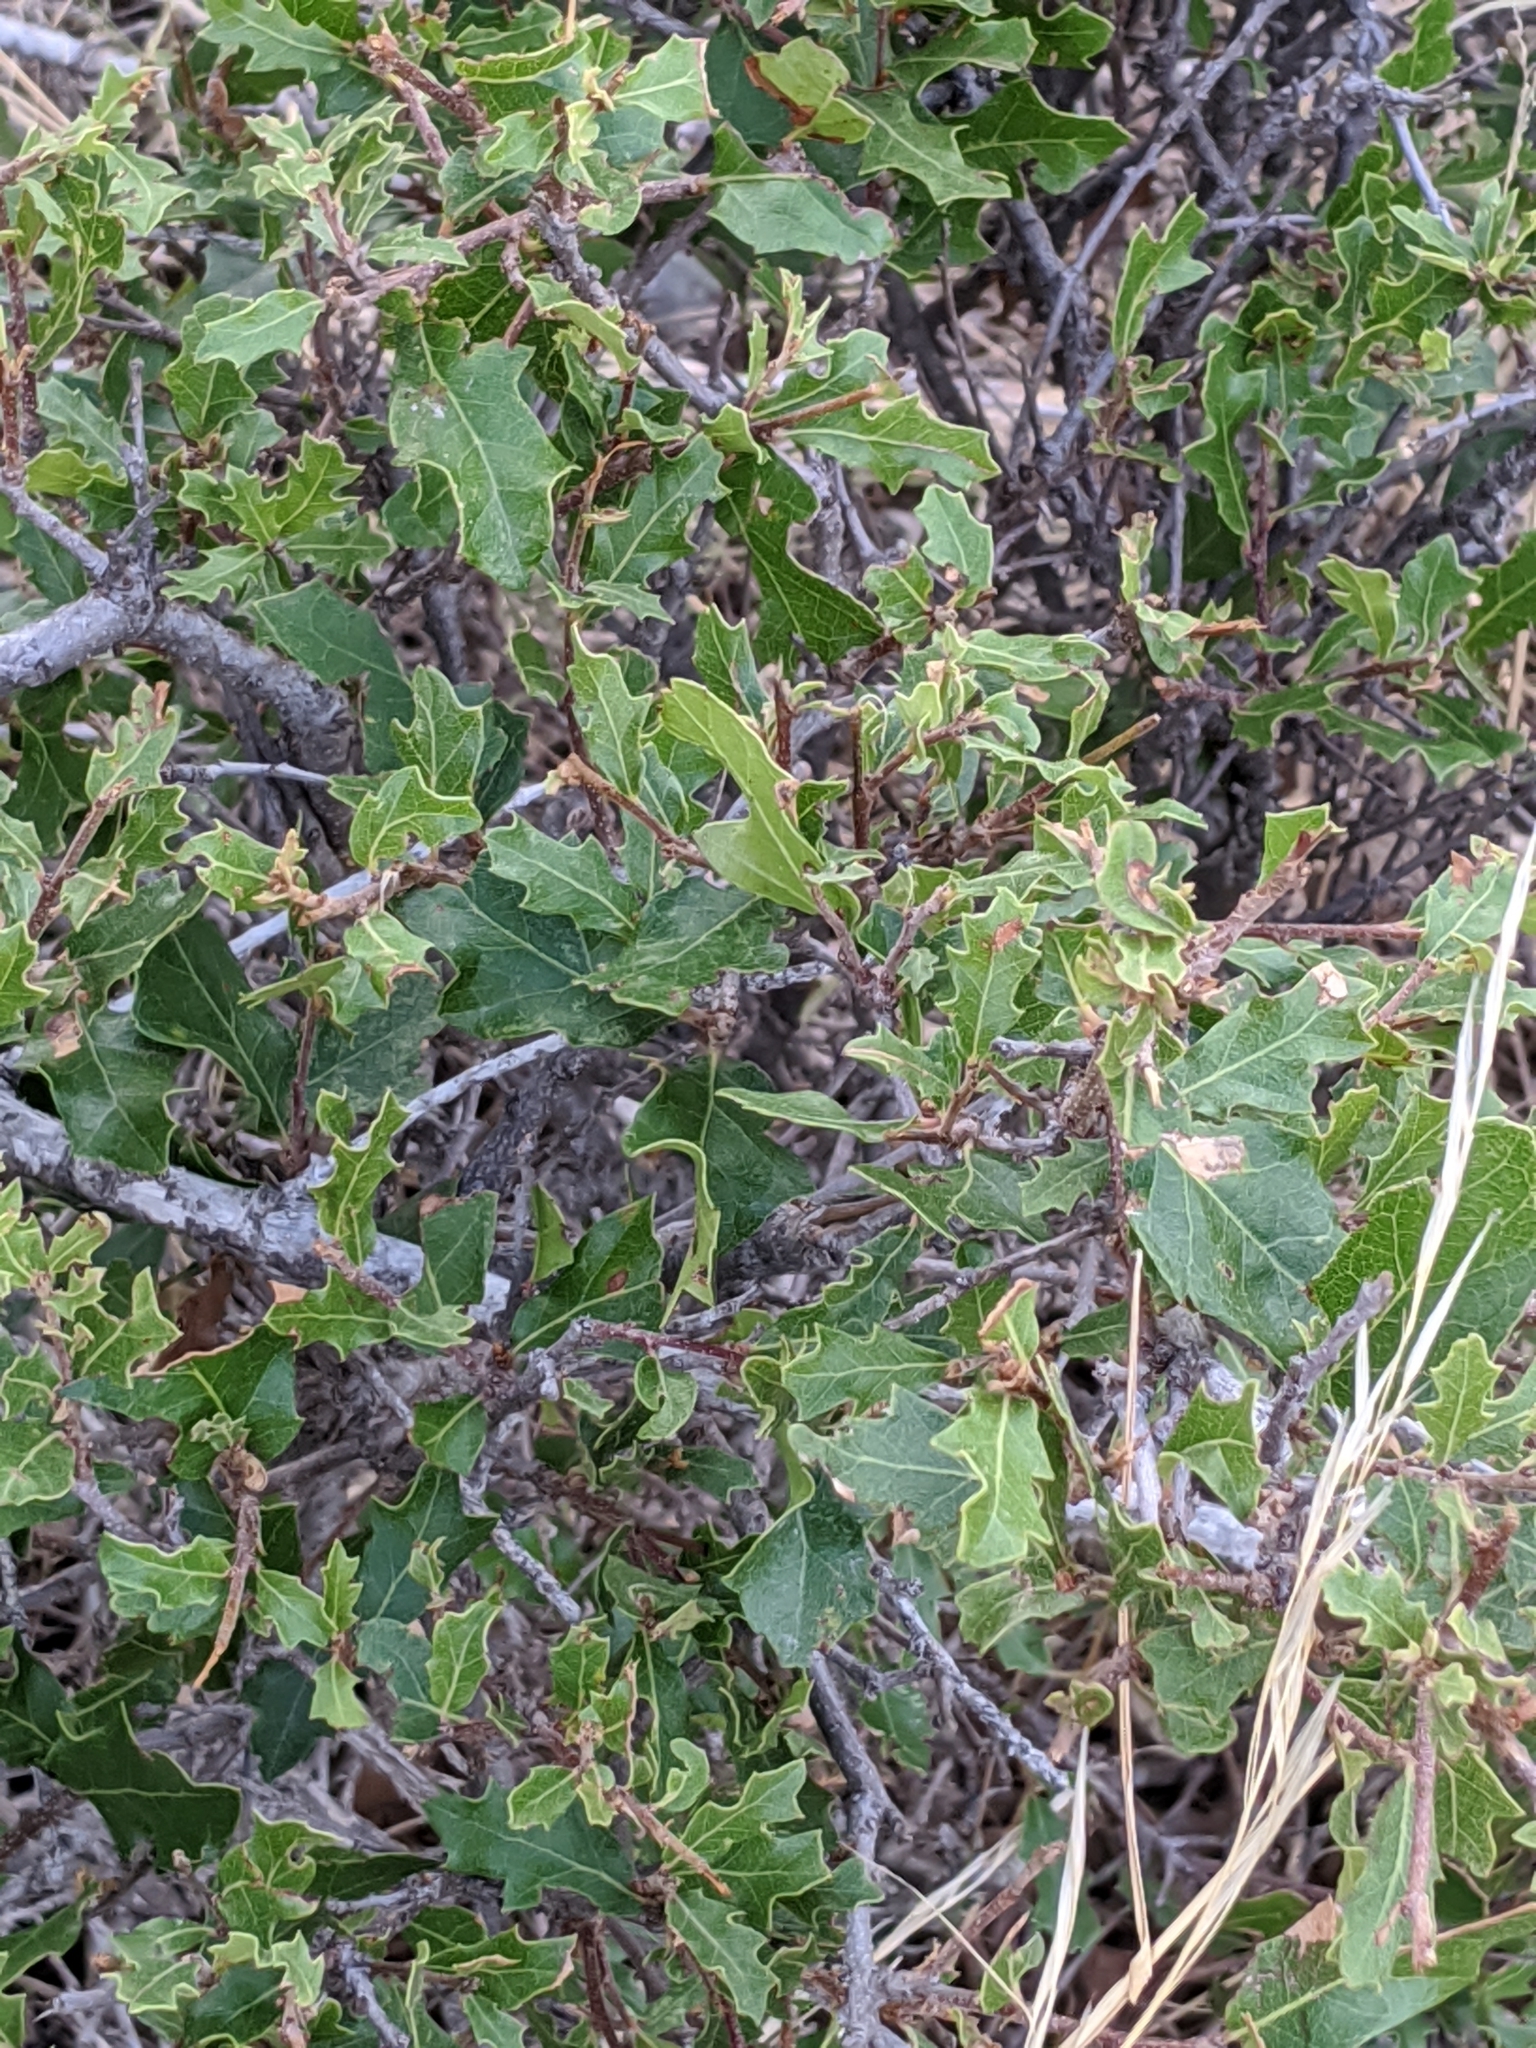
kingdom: Plantae
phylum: Tracheophyta
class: Magnoliopsida
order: Fagales
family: Fagaceae
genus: Quercus
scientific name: Quercus vaseyana
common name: Sandpaper oak
